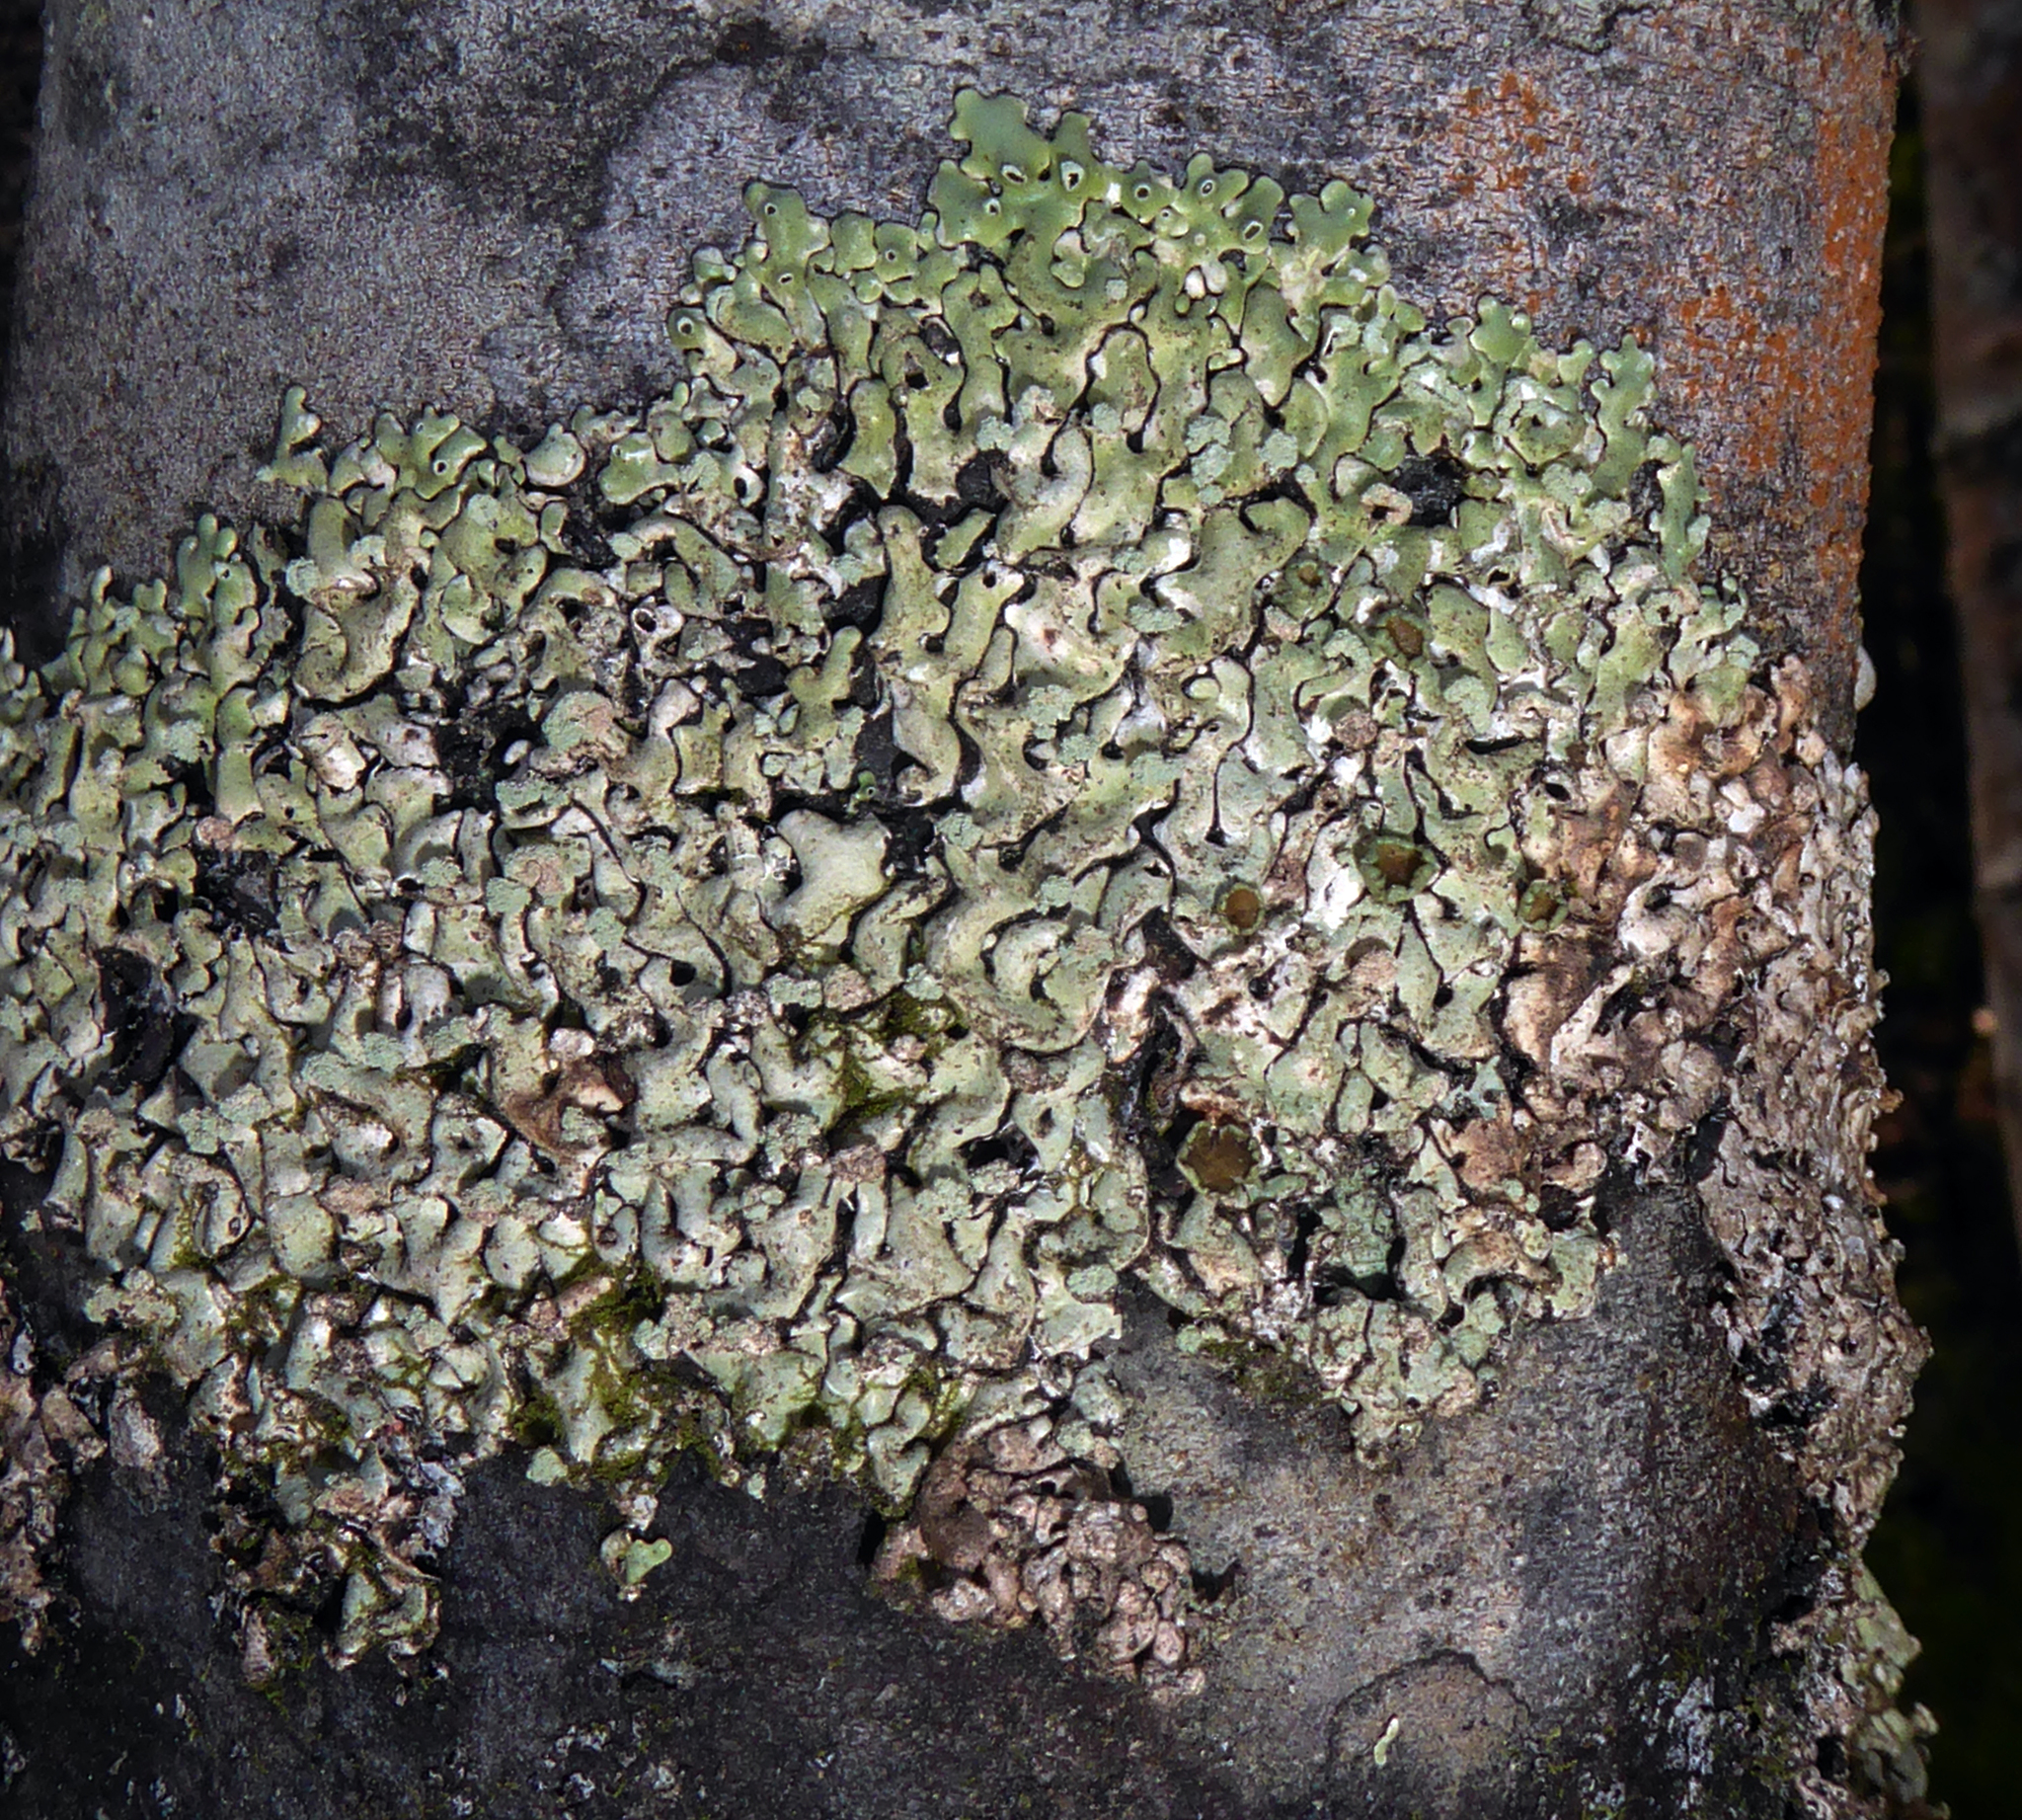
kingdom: Fungi
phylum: Ascomycota
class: Lecanoromycetes
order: Lecanorales
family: Parmeliaceae
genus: Menegazzia
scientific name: Menegazzia aucklandica
